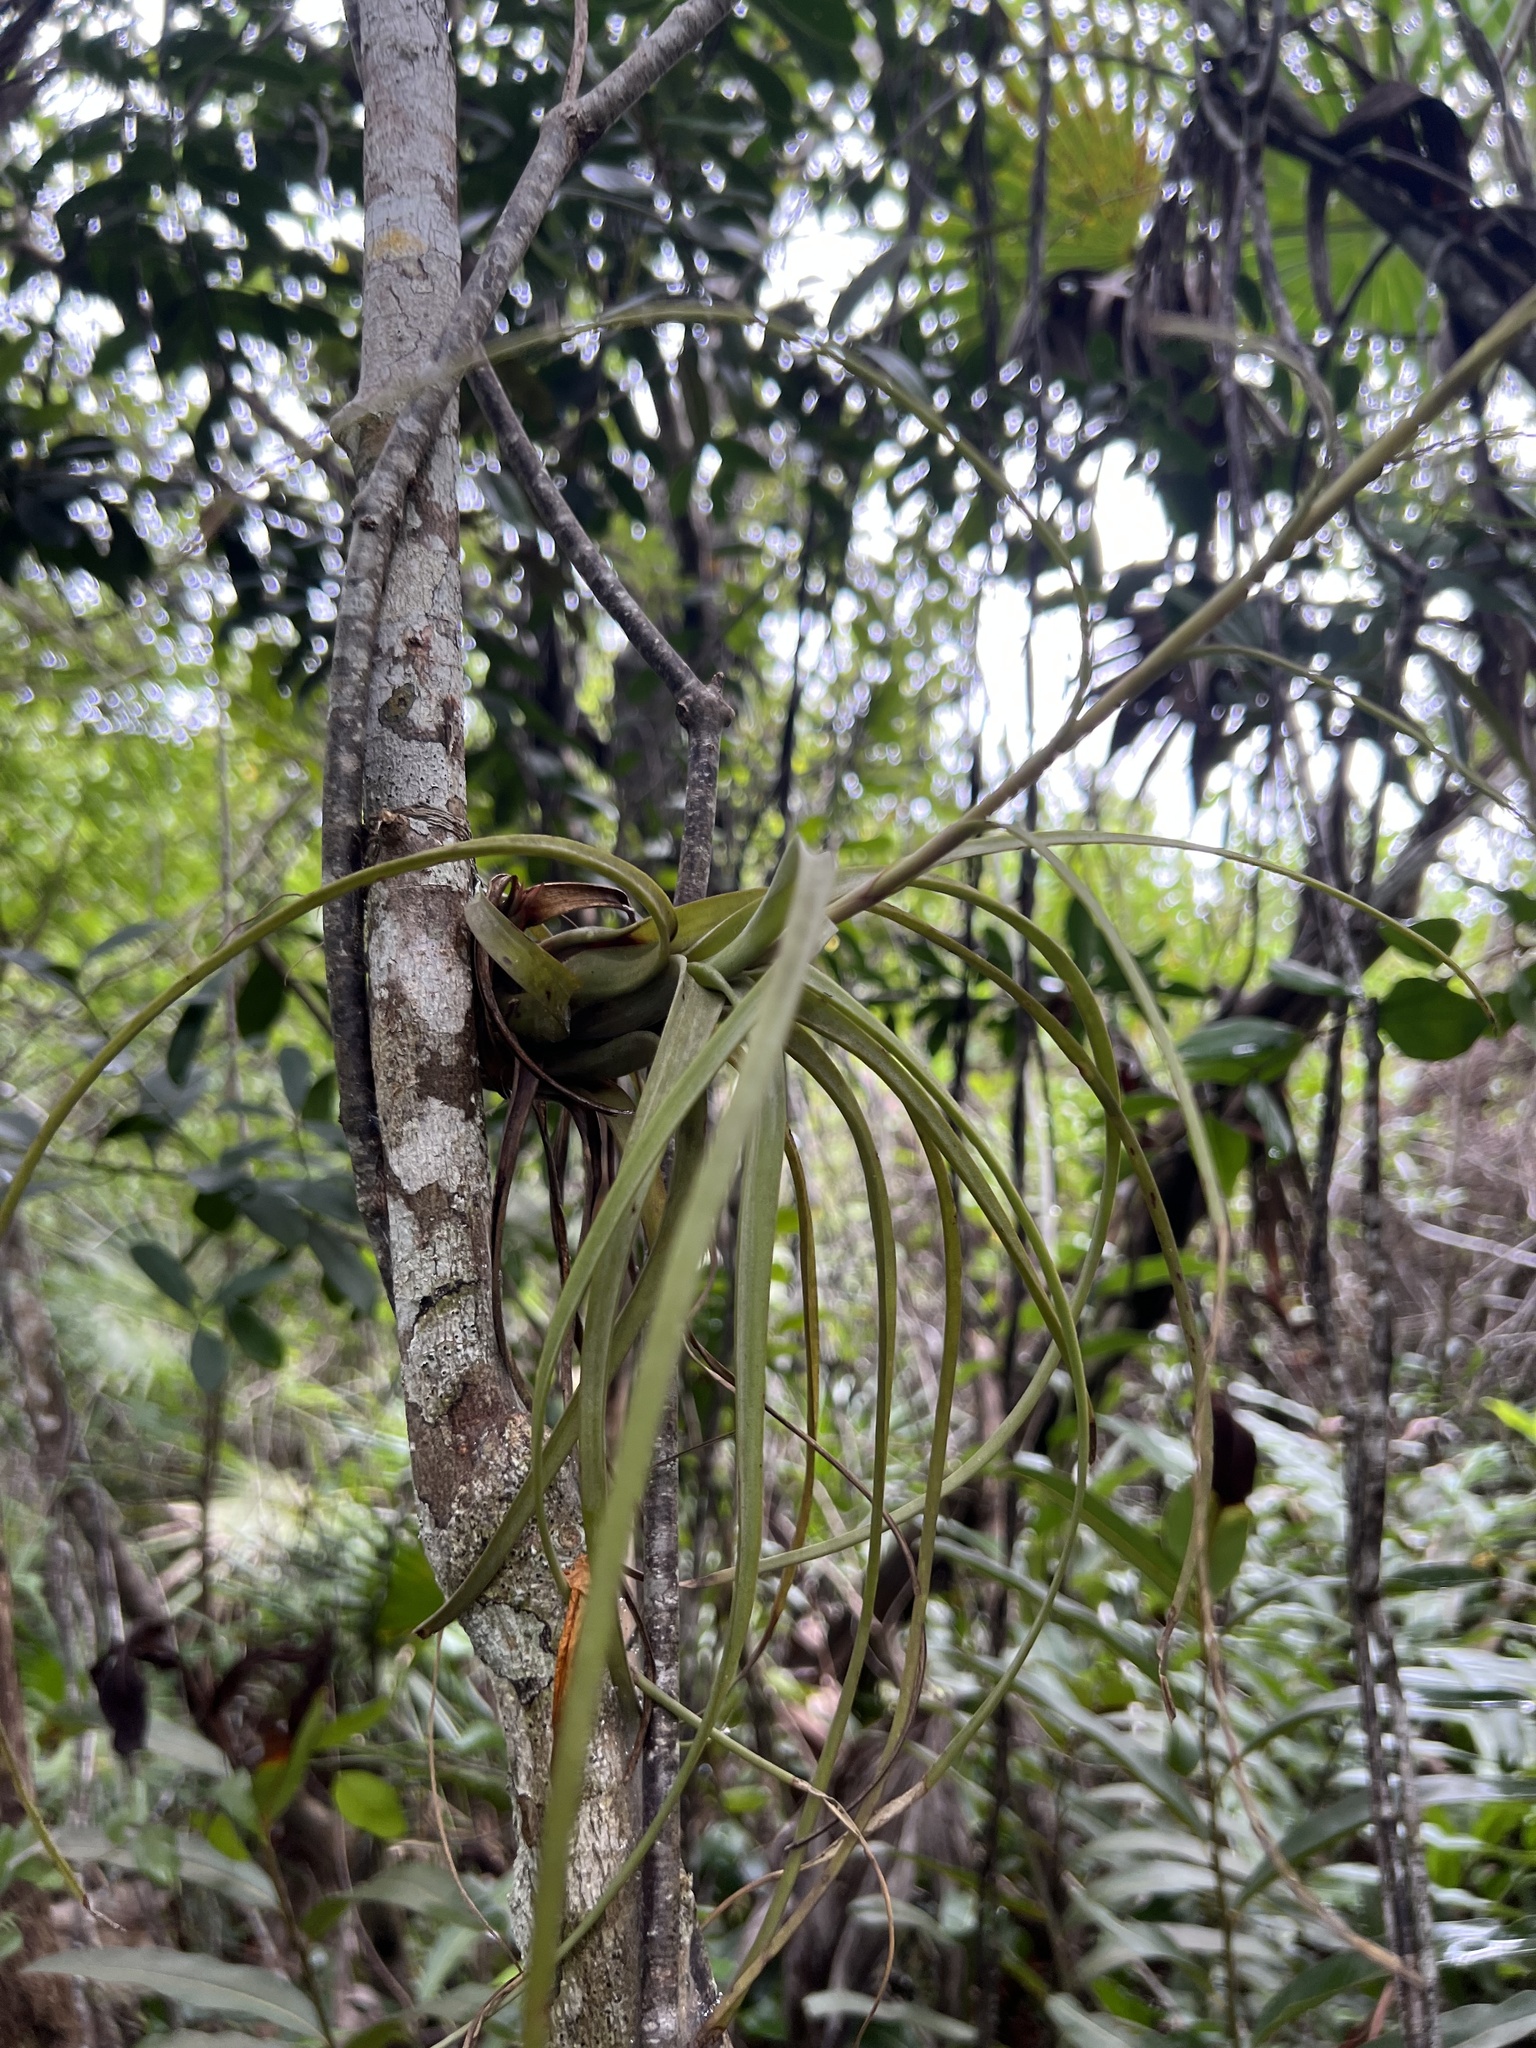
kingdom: Plantae
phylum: Tracheophyta
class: Liliopsida
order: Poales
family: Bromeliaceae
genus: Tillandsia
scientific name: Tillandsia balbisiana
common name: Northern needleleaf
